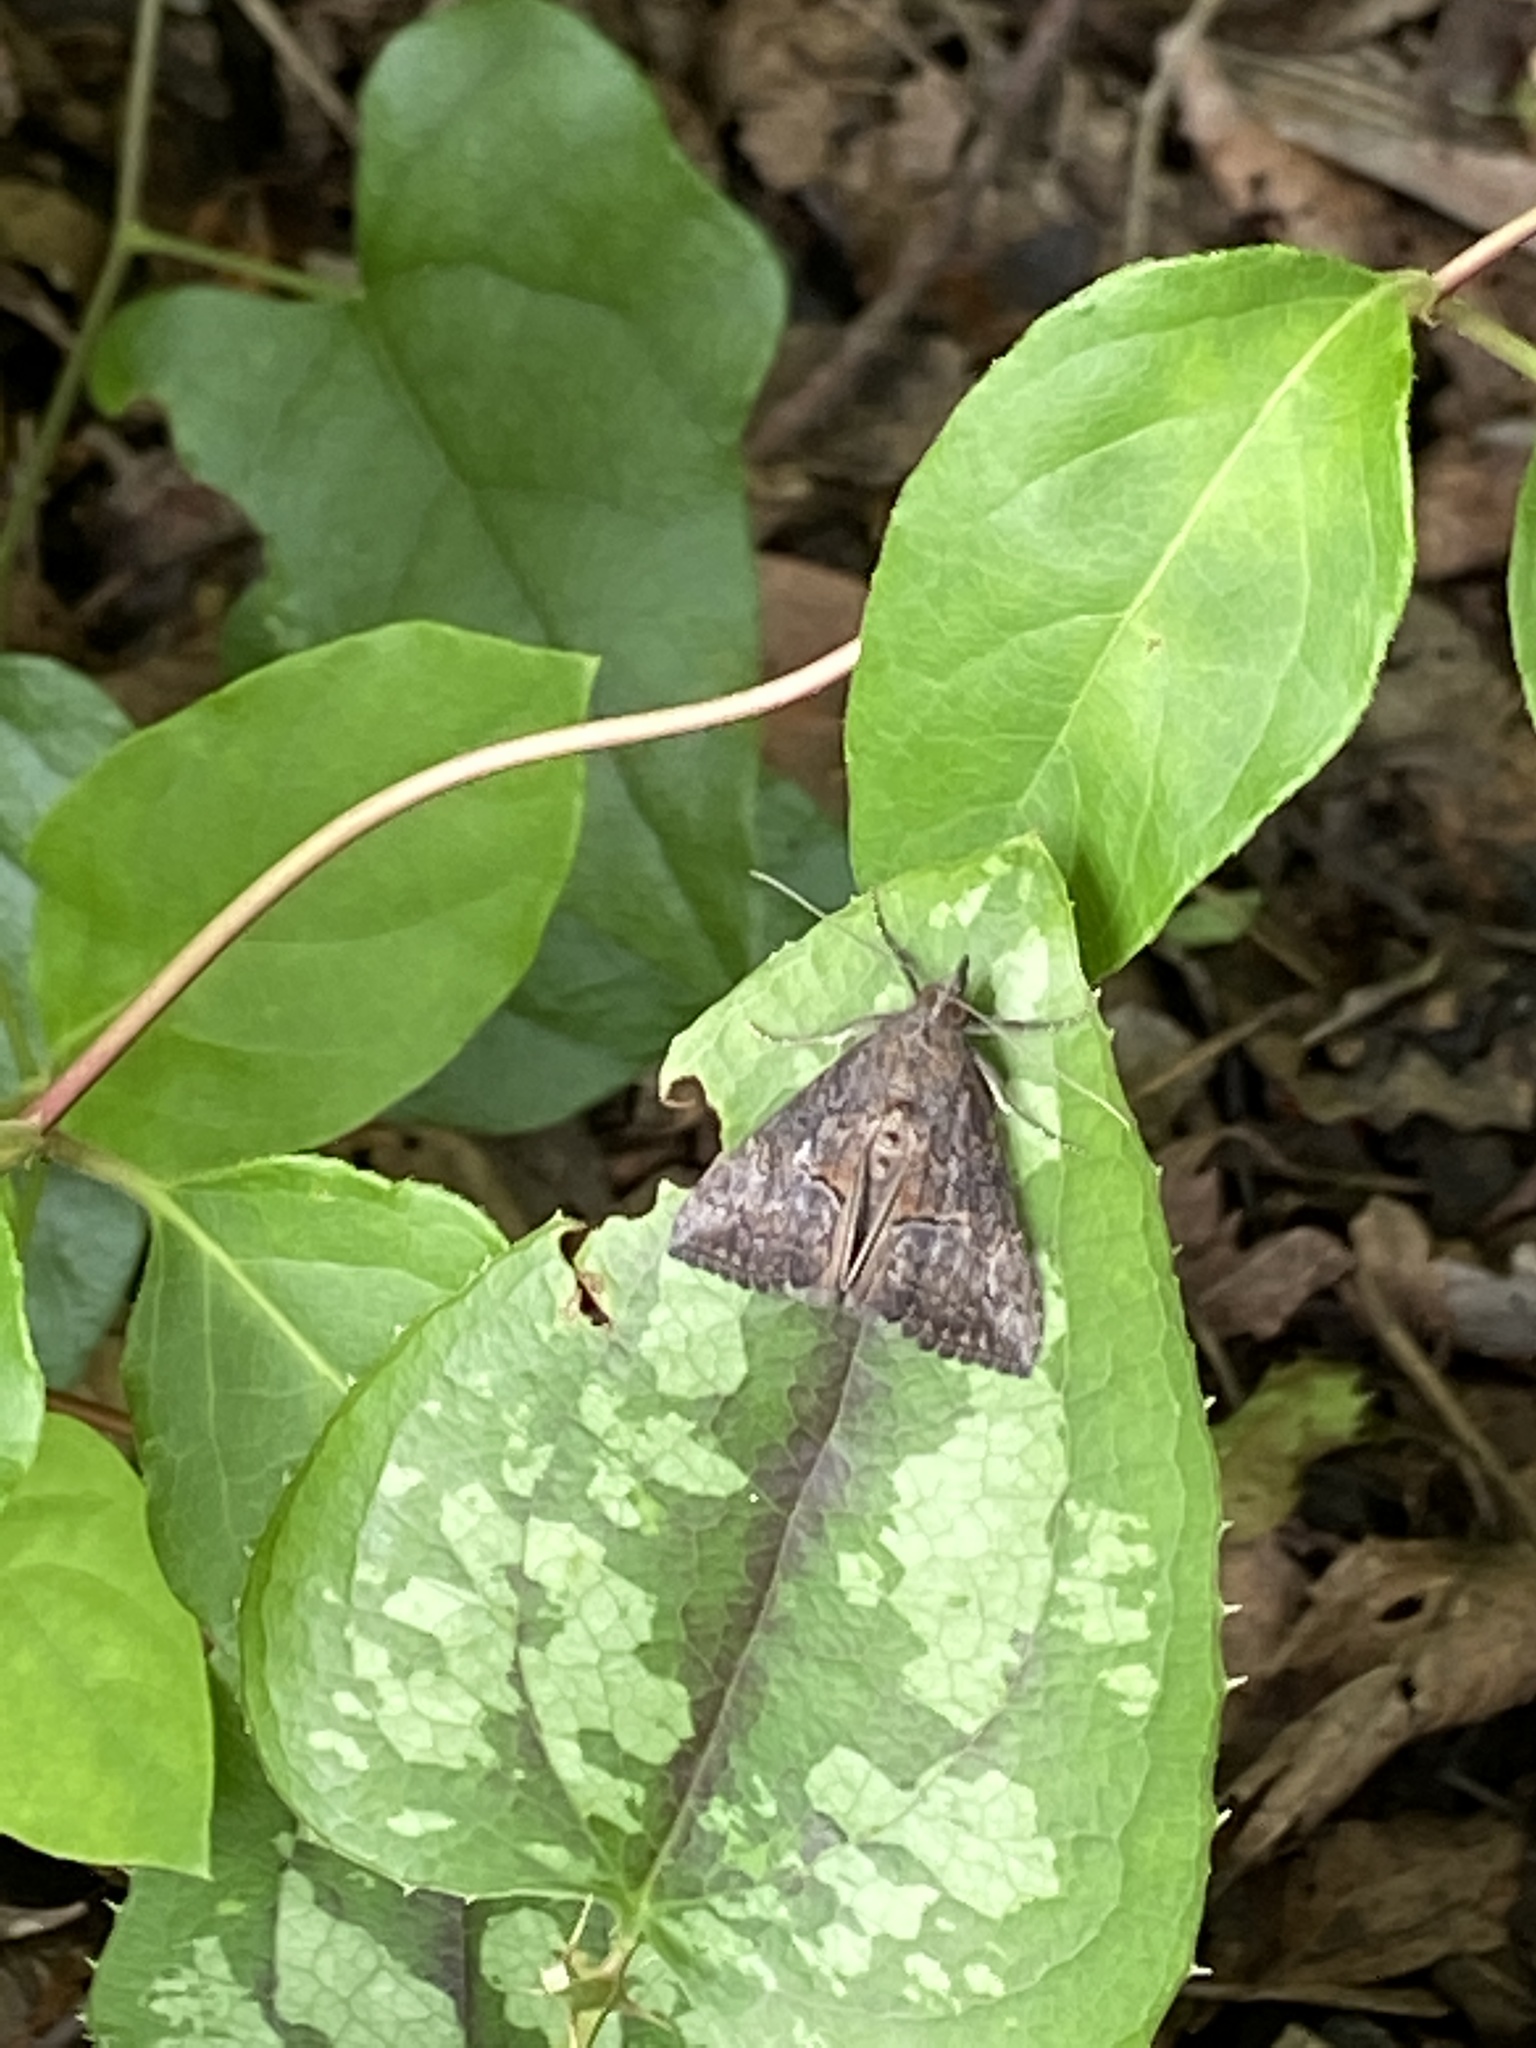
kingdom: Animalia
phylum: Arthropoda
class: Insecta
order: Lepidoptera
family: Erebidae
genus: Hypena
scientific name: Hypena scabra
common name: Green cloverworm
